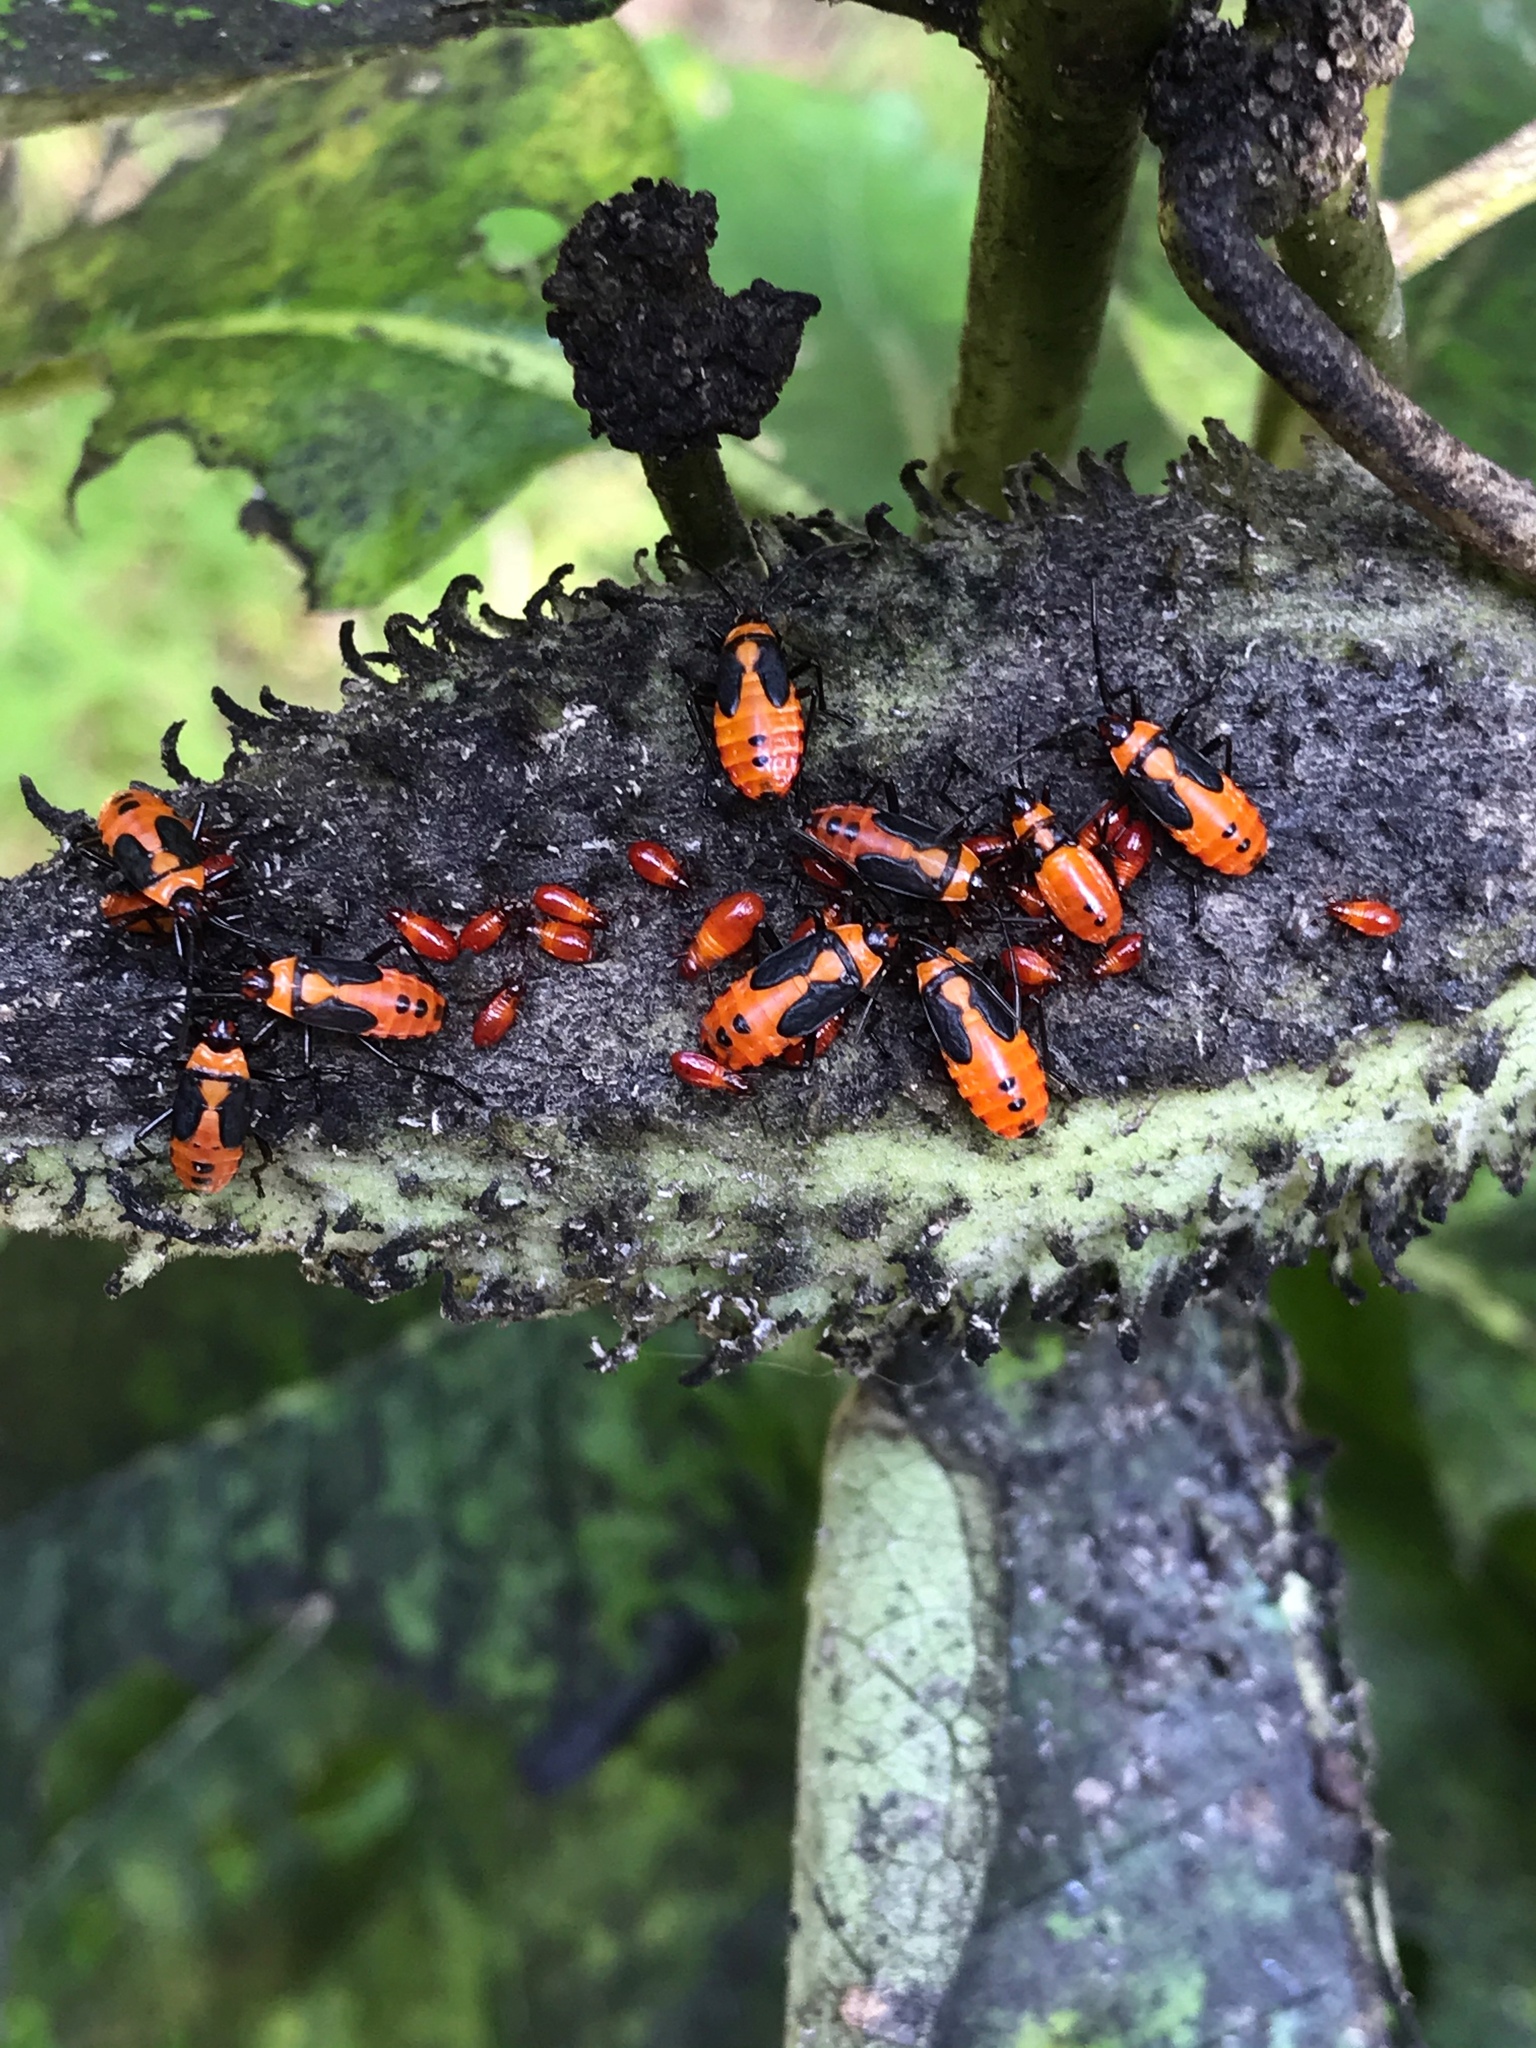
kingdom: Animalia
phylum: Arthropoda
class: Insecta
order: Hemiptera
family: Lygaeidae
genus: Oncopeltus
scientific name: Oncopeltus fasciatus
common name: Large milkweed bug
